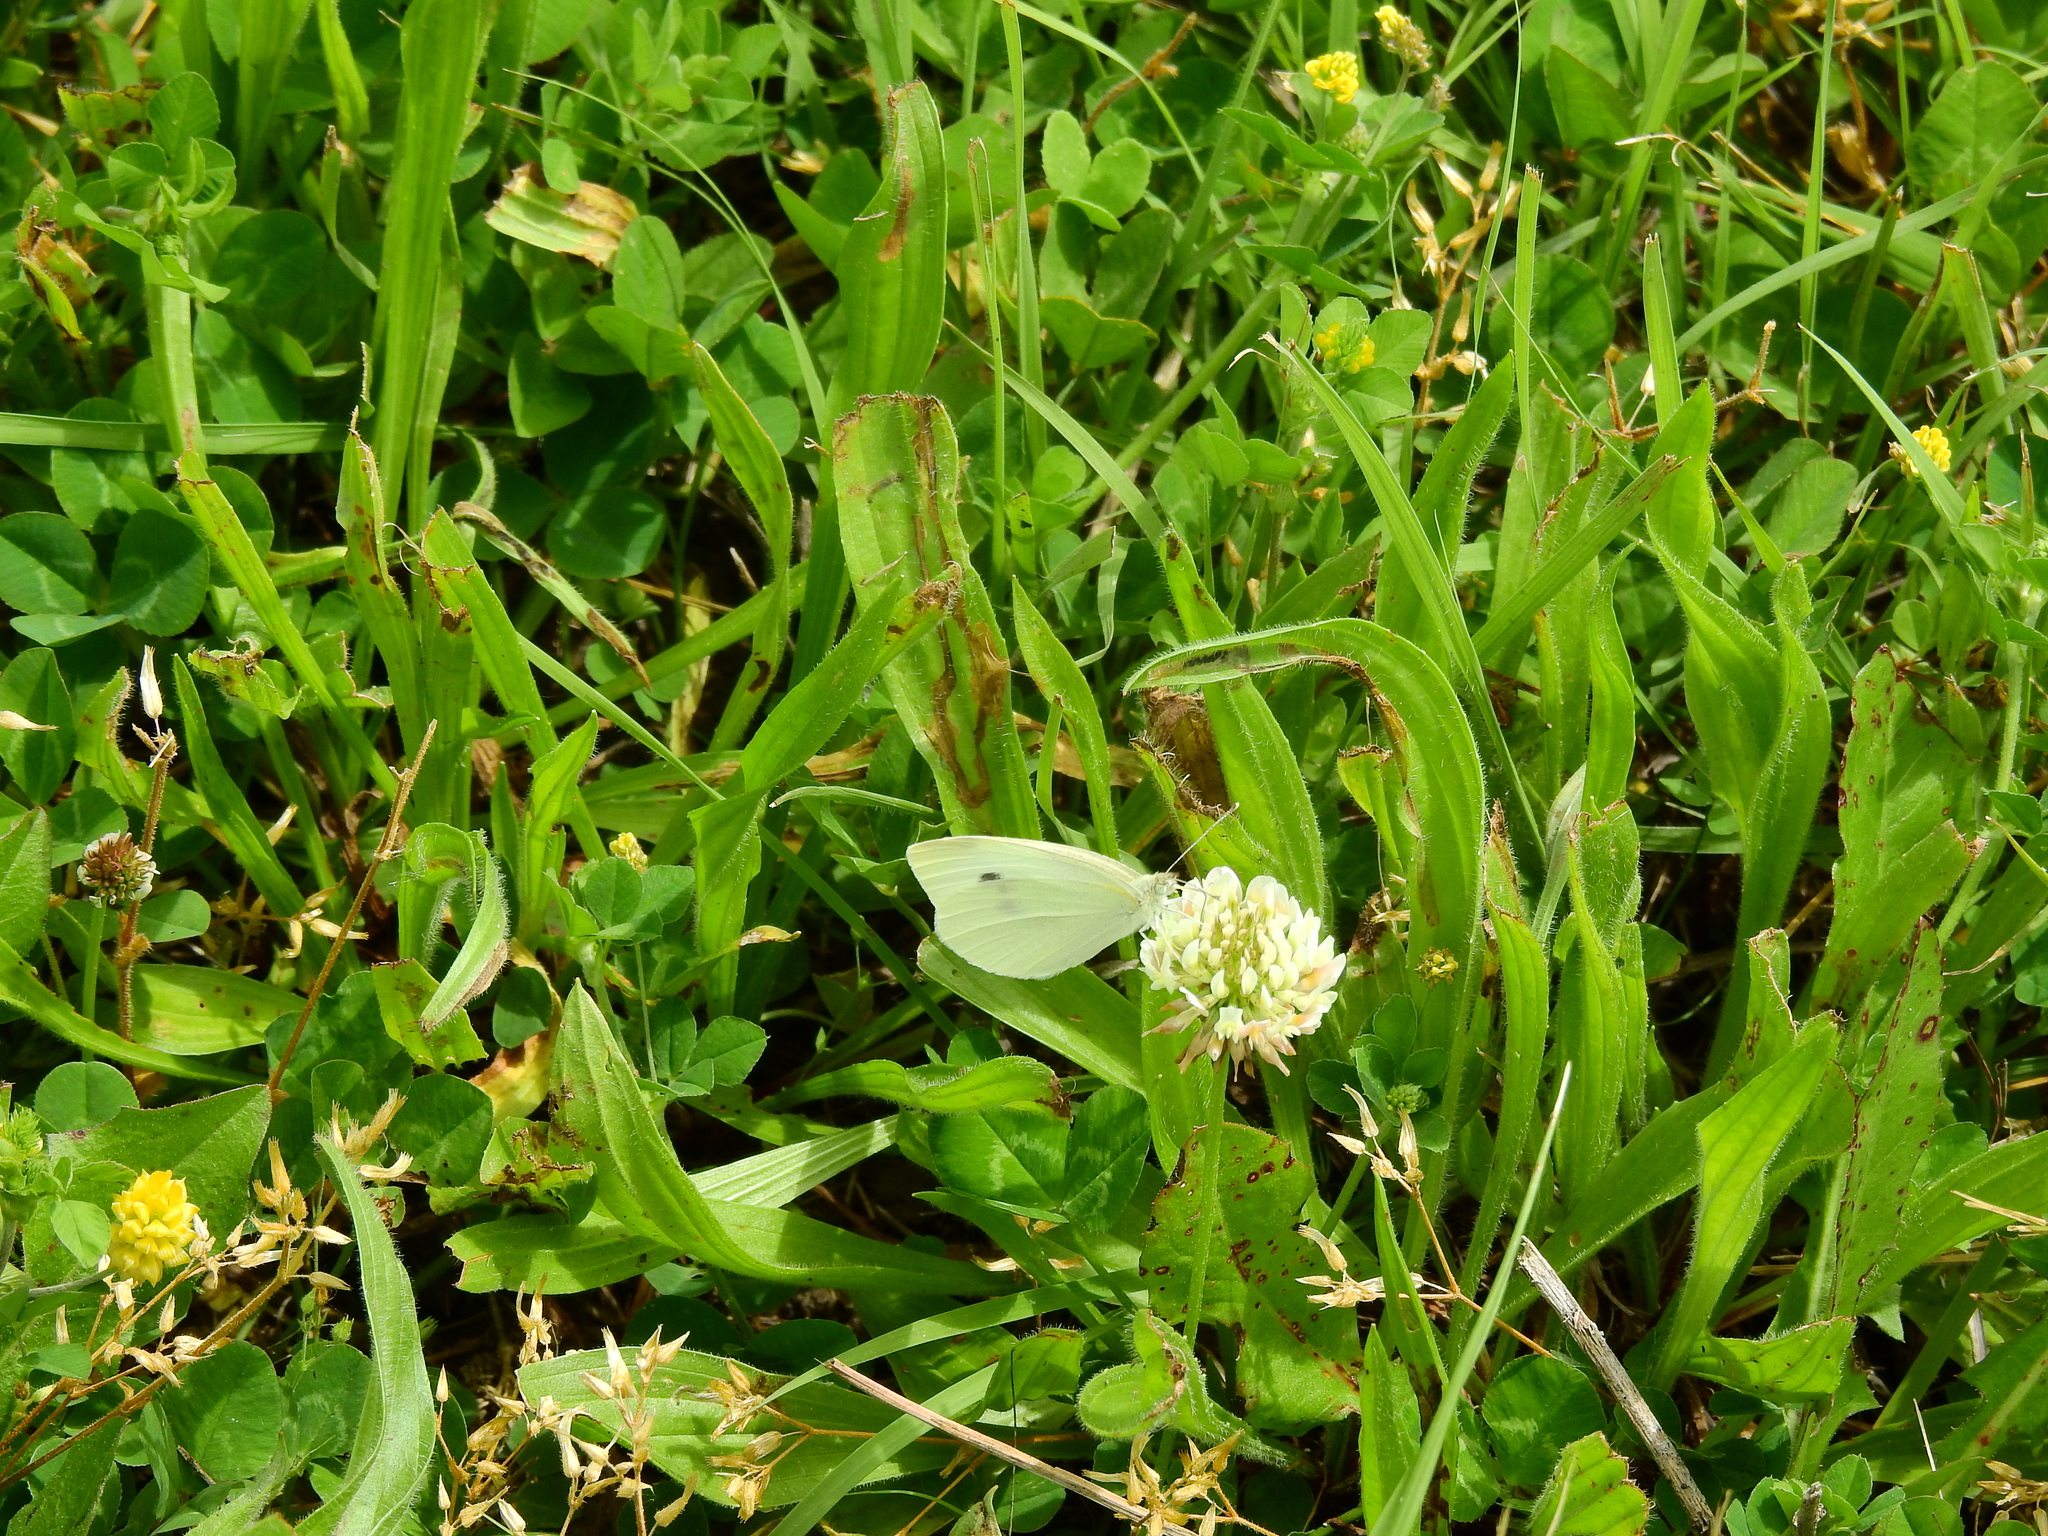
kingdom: Animalia
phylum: Arthropoda
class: Insecta
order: Lepidoptera
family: Pieridae
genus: Pieris
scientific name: Pieris rapae
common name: Small white
